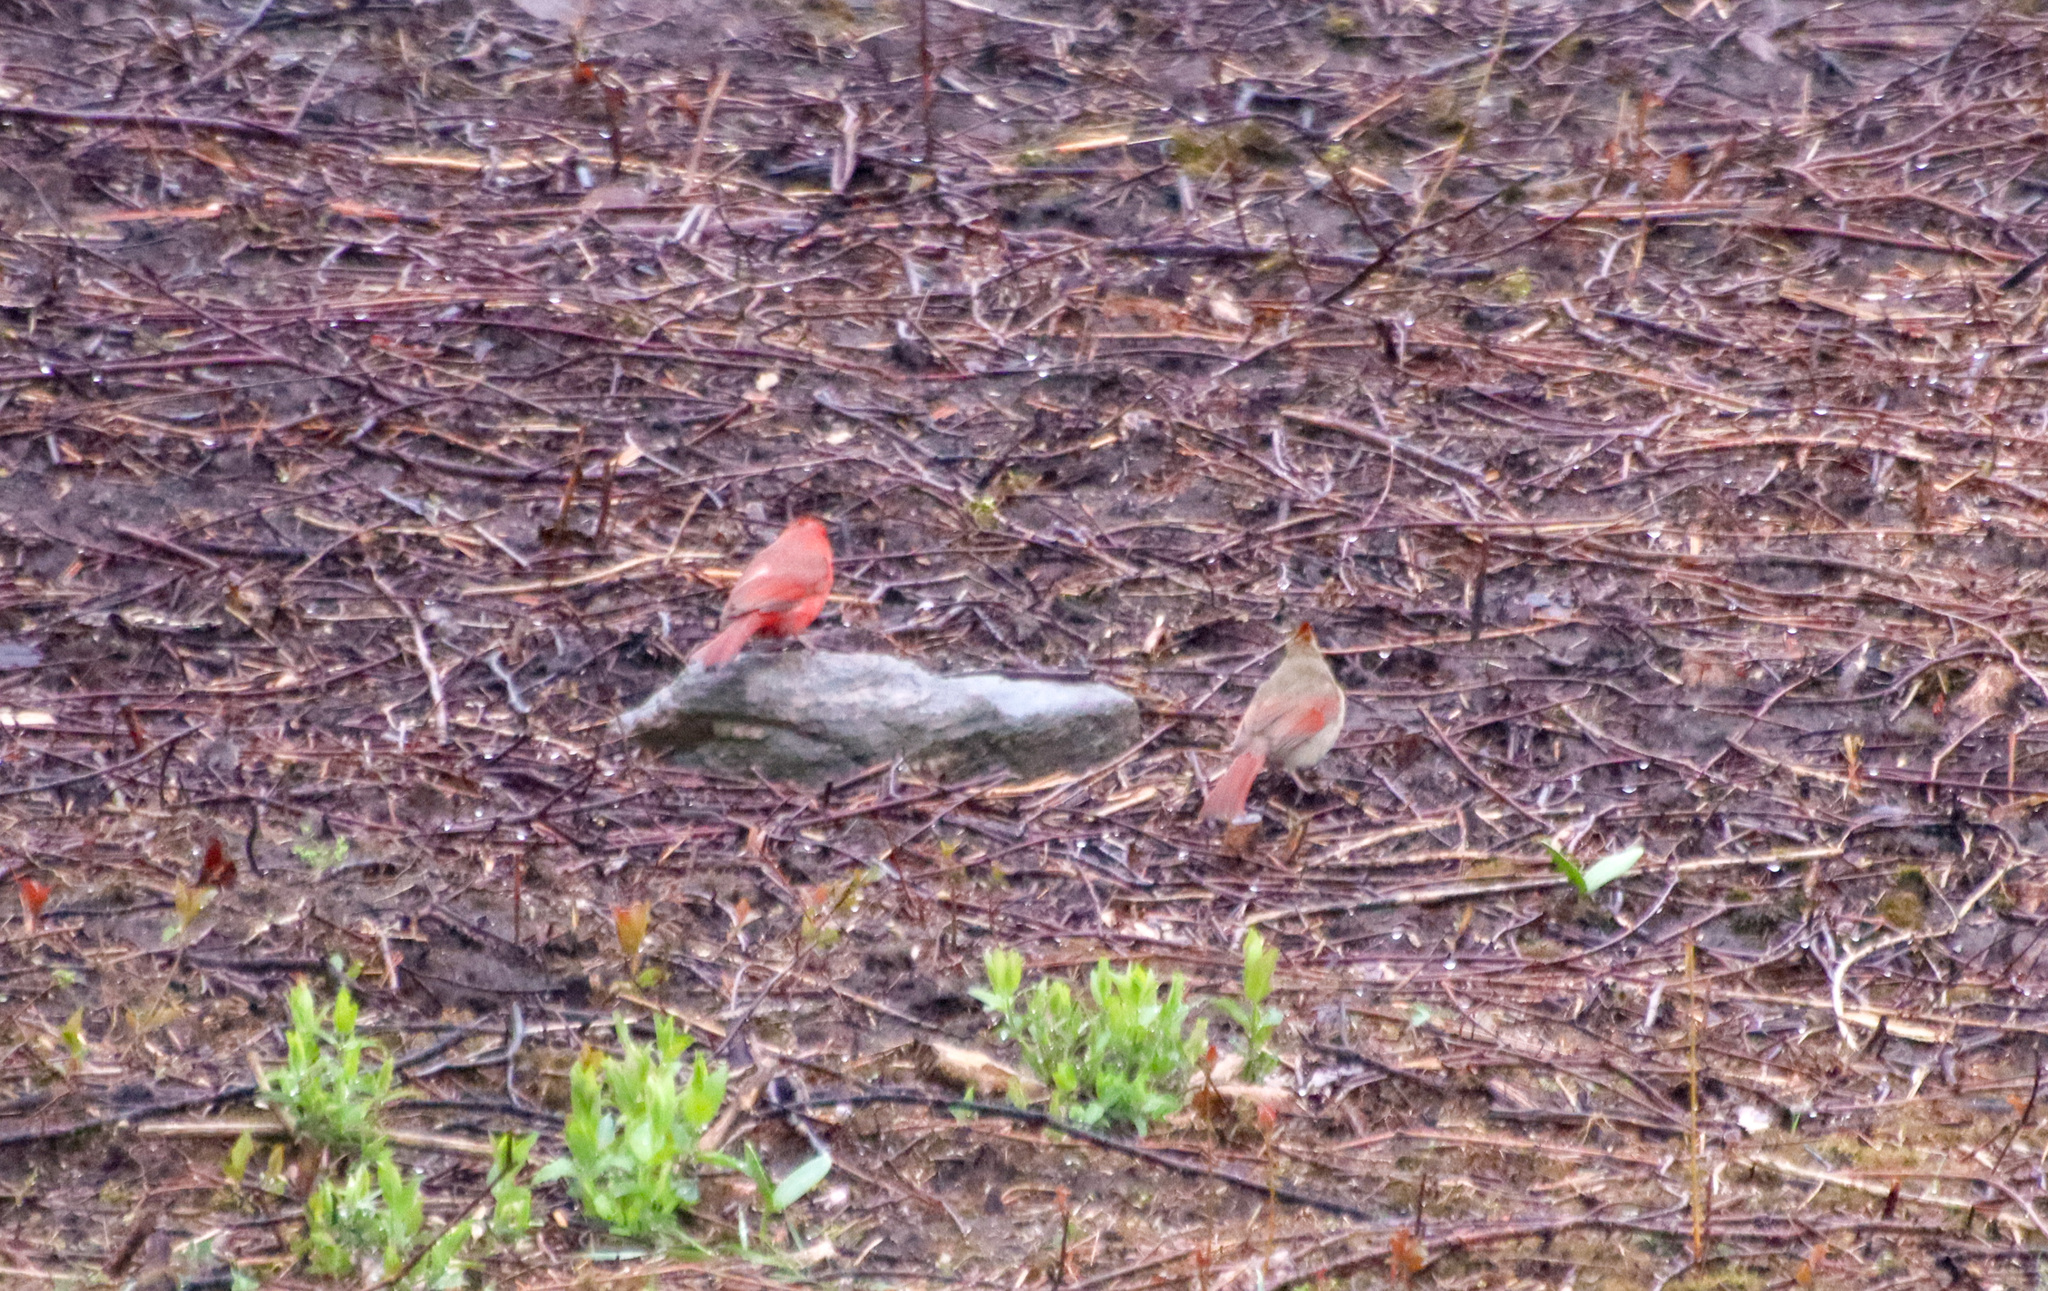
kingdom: Animalia
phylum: Chordata
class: Aves
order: Passeriformes
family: Cardinalidae
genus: Cardinalis
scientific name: Cardinalis cardinalis
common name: Northern cardinal
